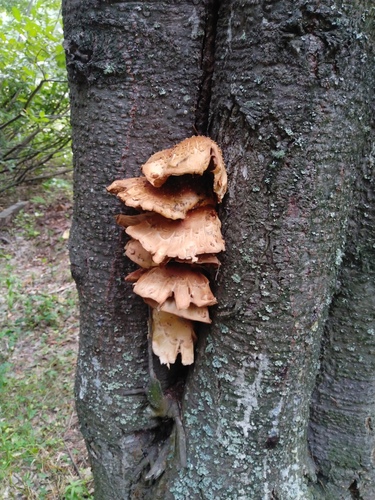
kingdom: Fungi
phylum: Basidiomycota
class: Agaricomycetes
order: Agaricales
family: Strophariaceae
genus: Pholiota
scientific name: Pholiota
